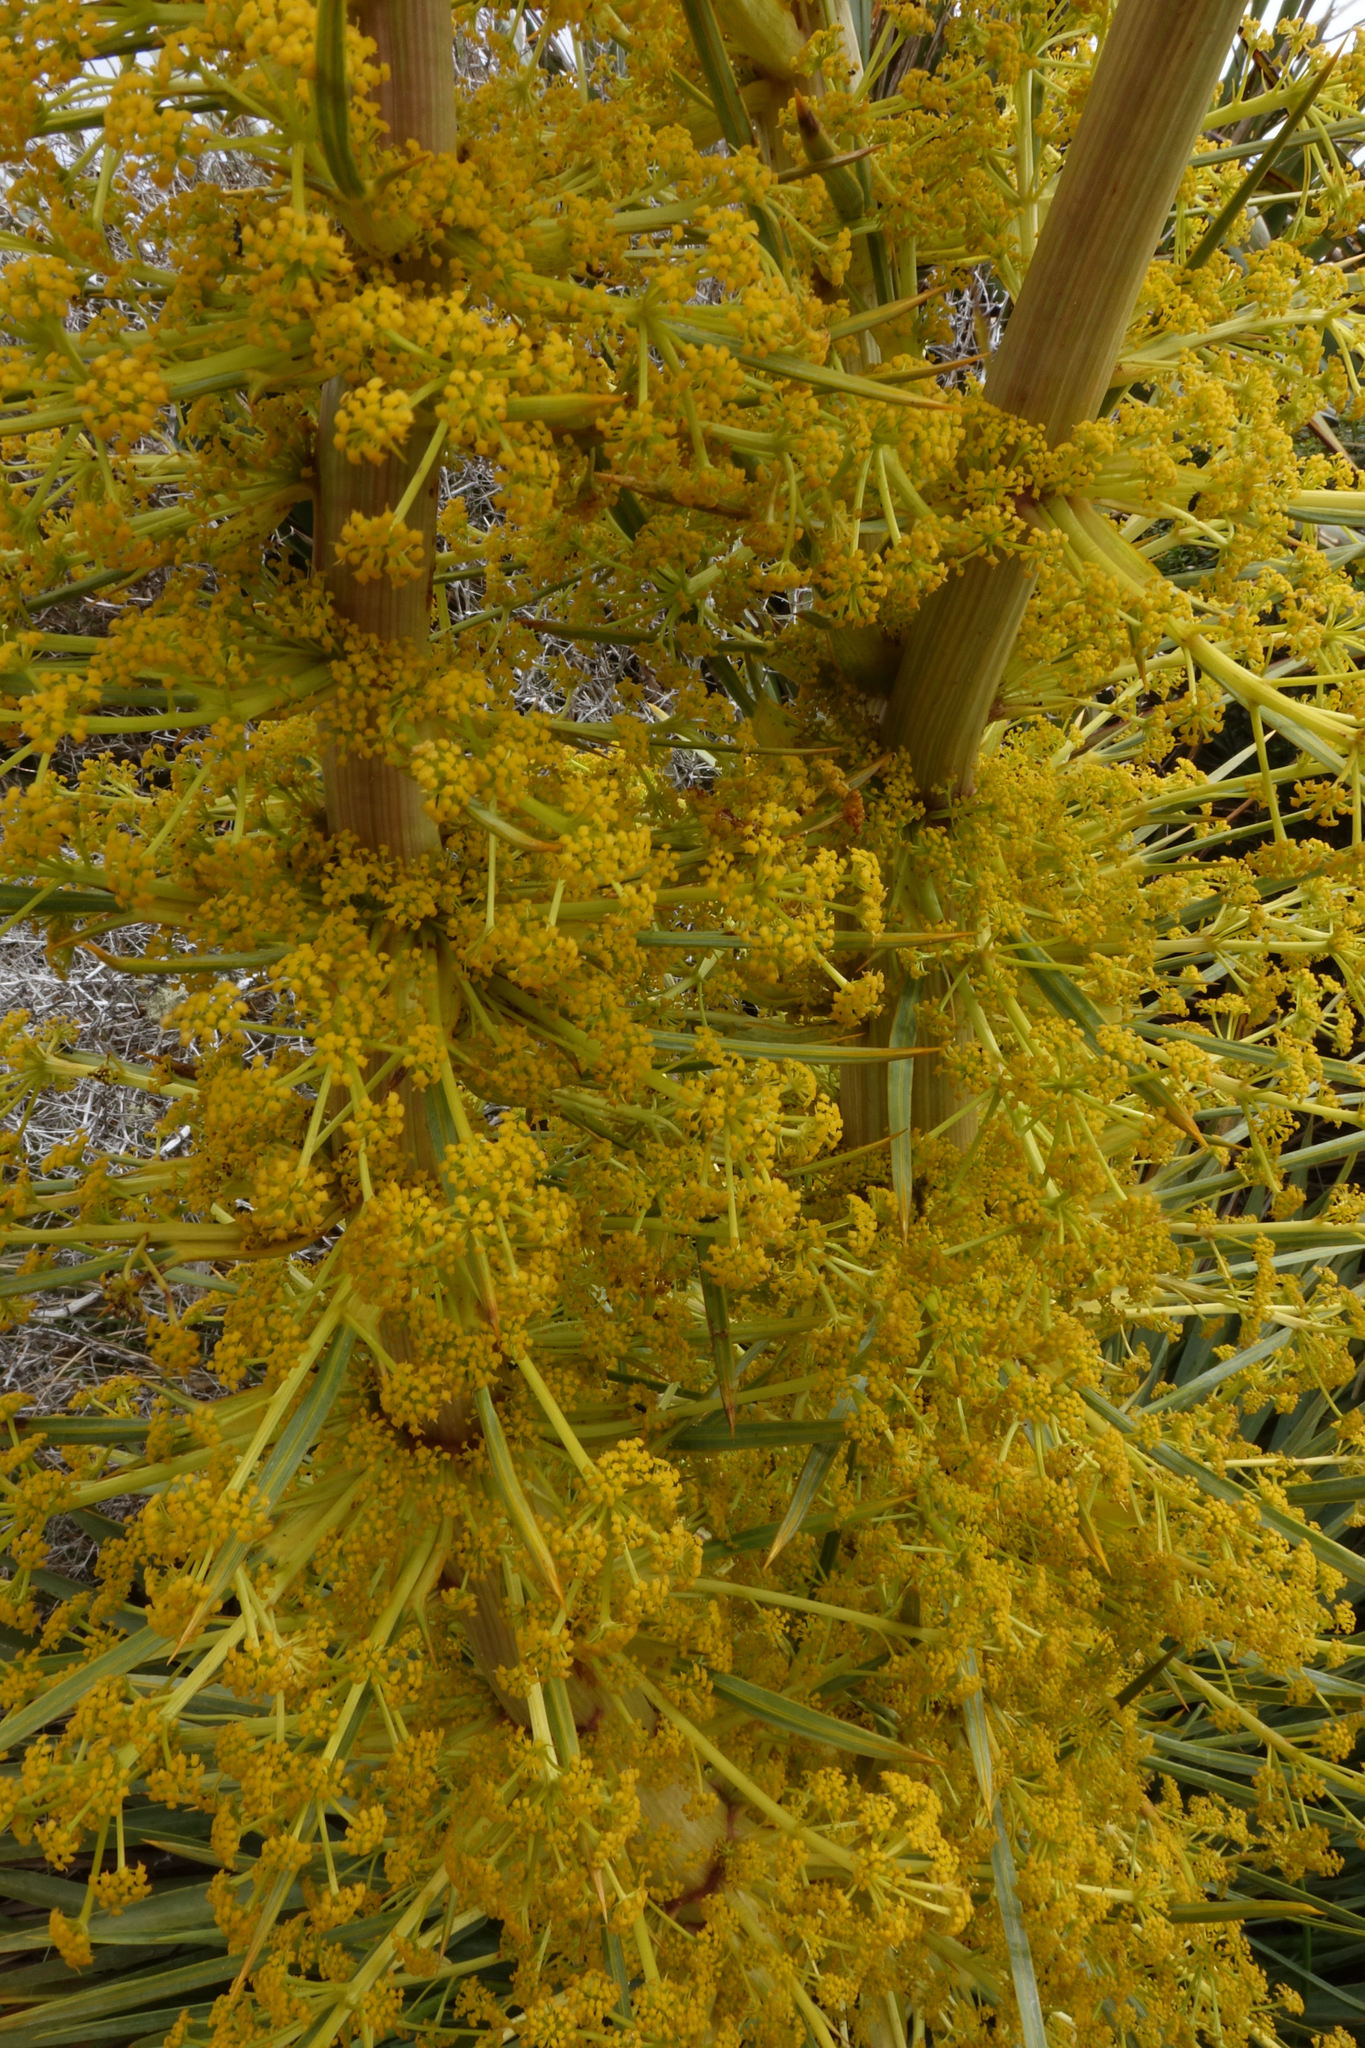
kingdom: Plantae
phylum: Tracheophyta
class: Magnoliopsida
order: Apiales
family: Apiaceae
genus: Aciphylla
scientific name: Aciphylla scott-thomsonii
